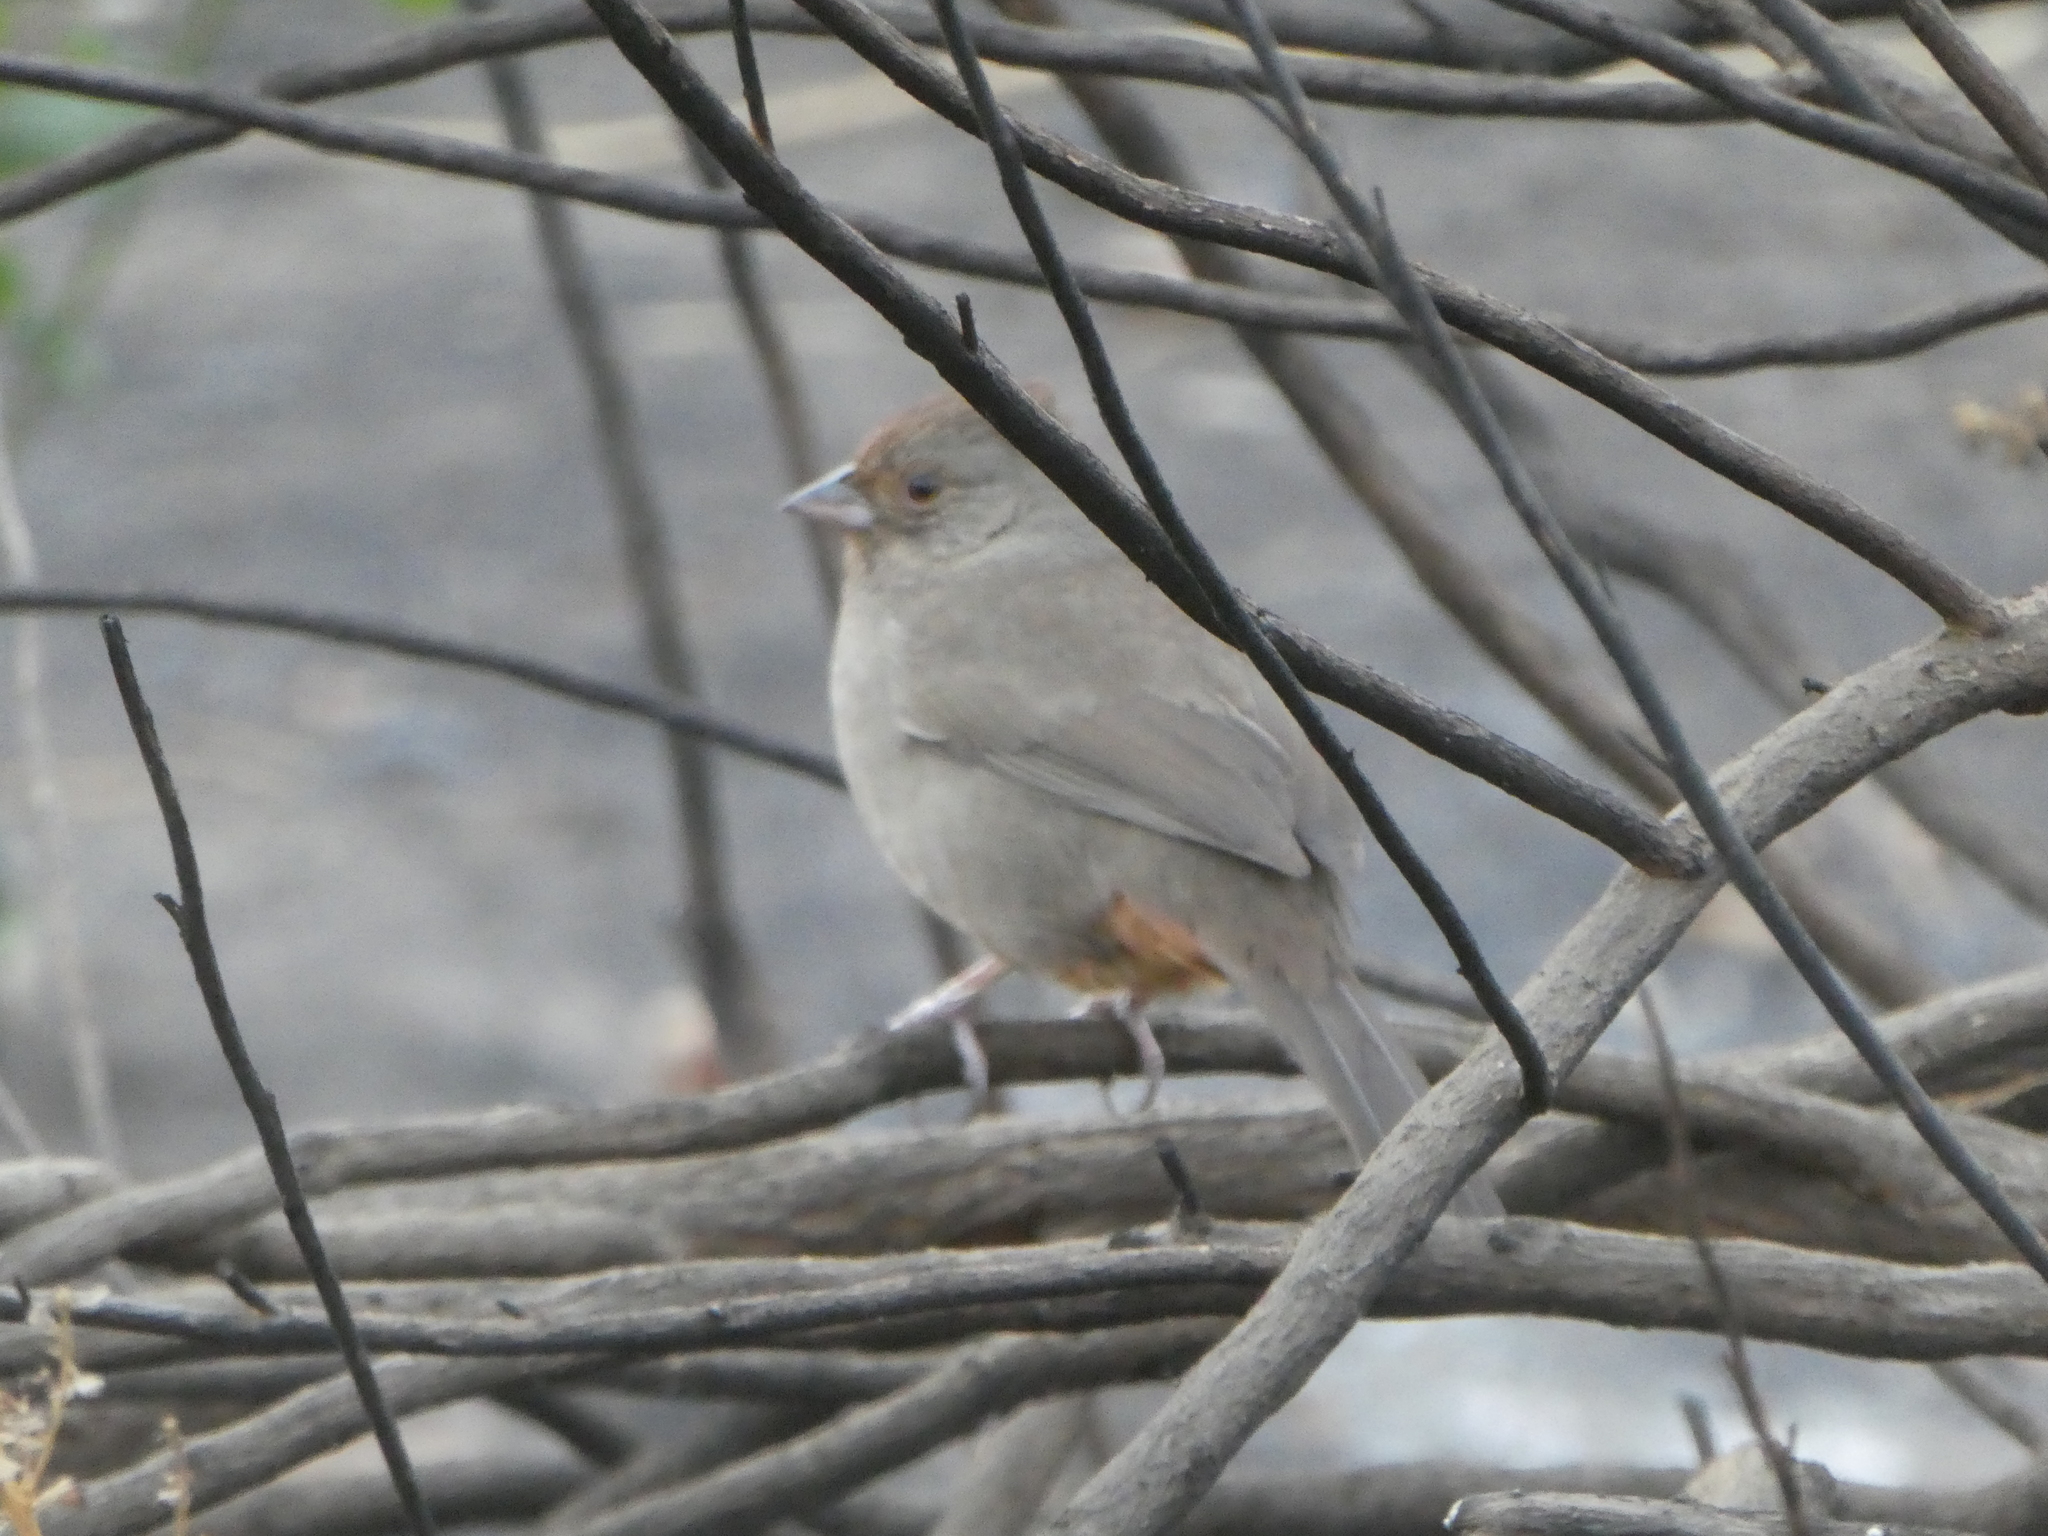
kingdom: Animalia
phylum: Chordata
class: Aves
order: Passeriformes
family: Passerellidae
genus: Melozone
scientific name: Melozone crissalis
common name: California towhee
